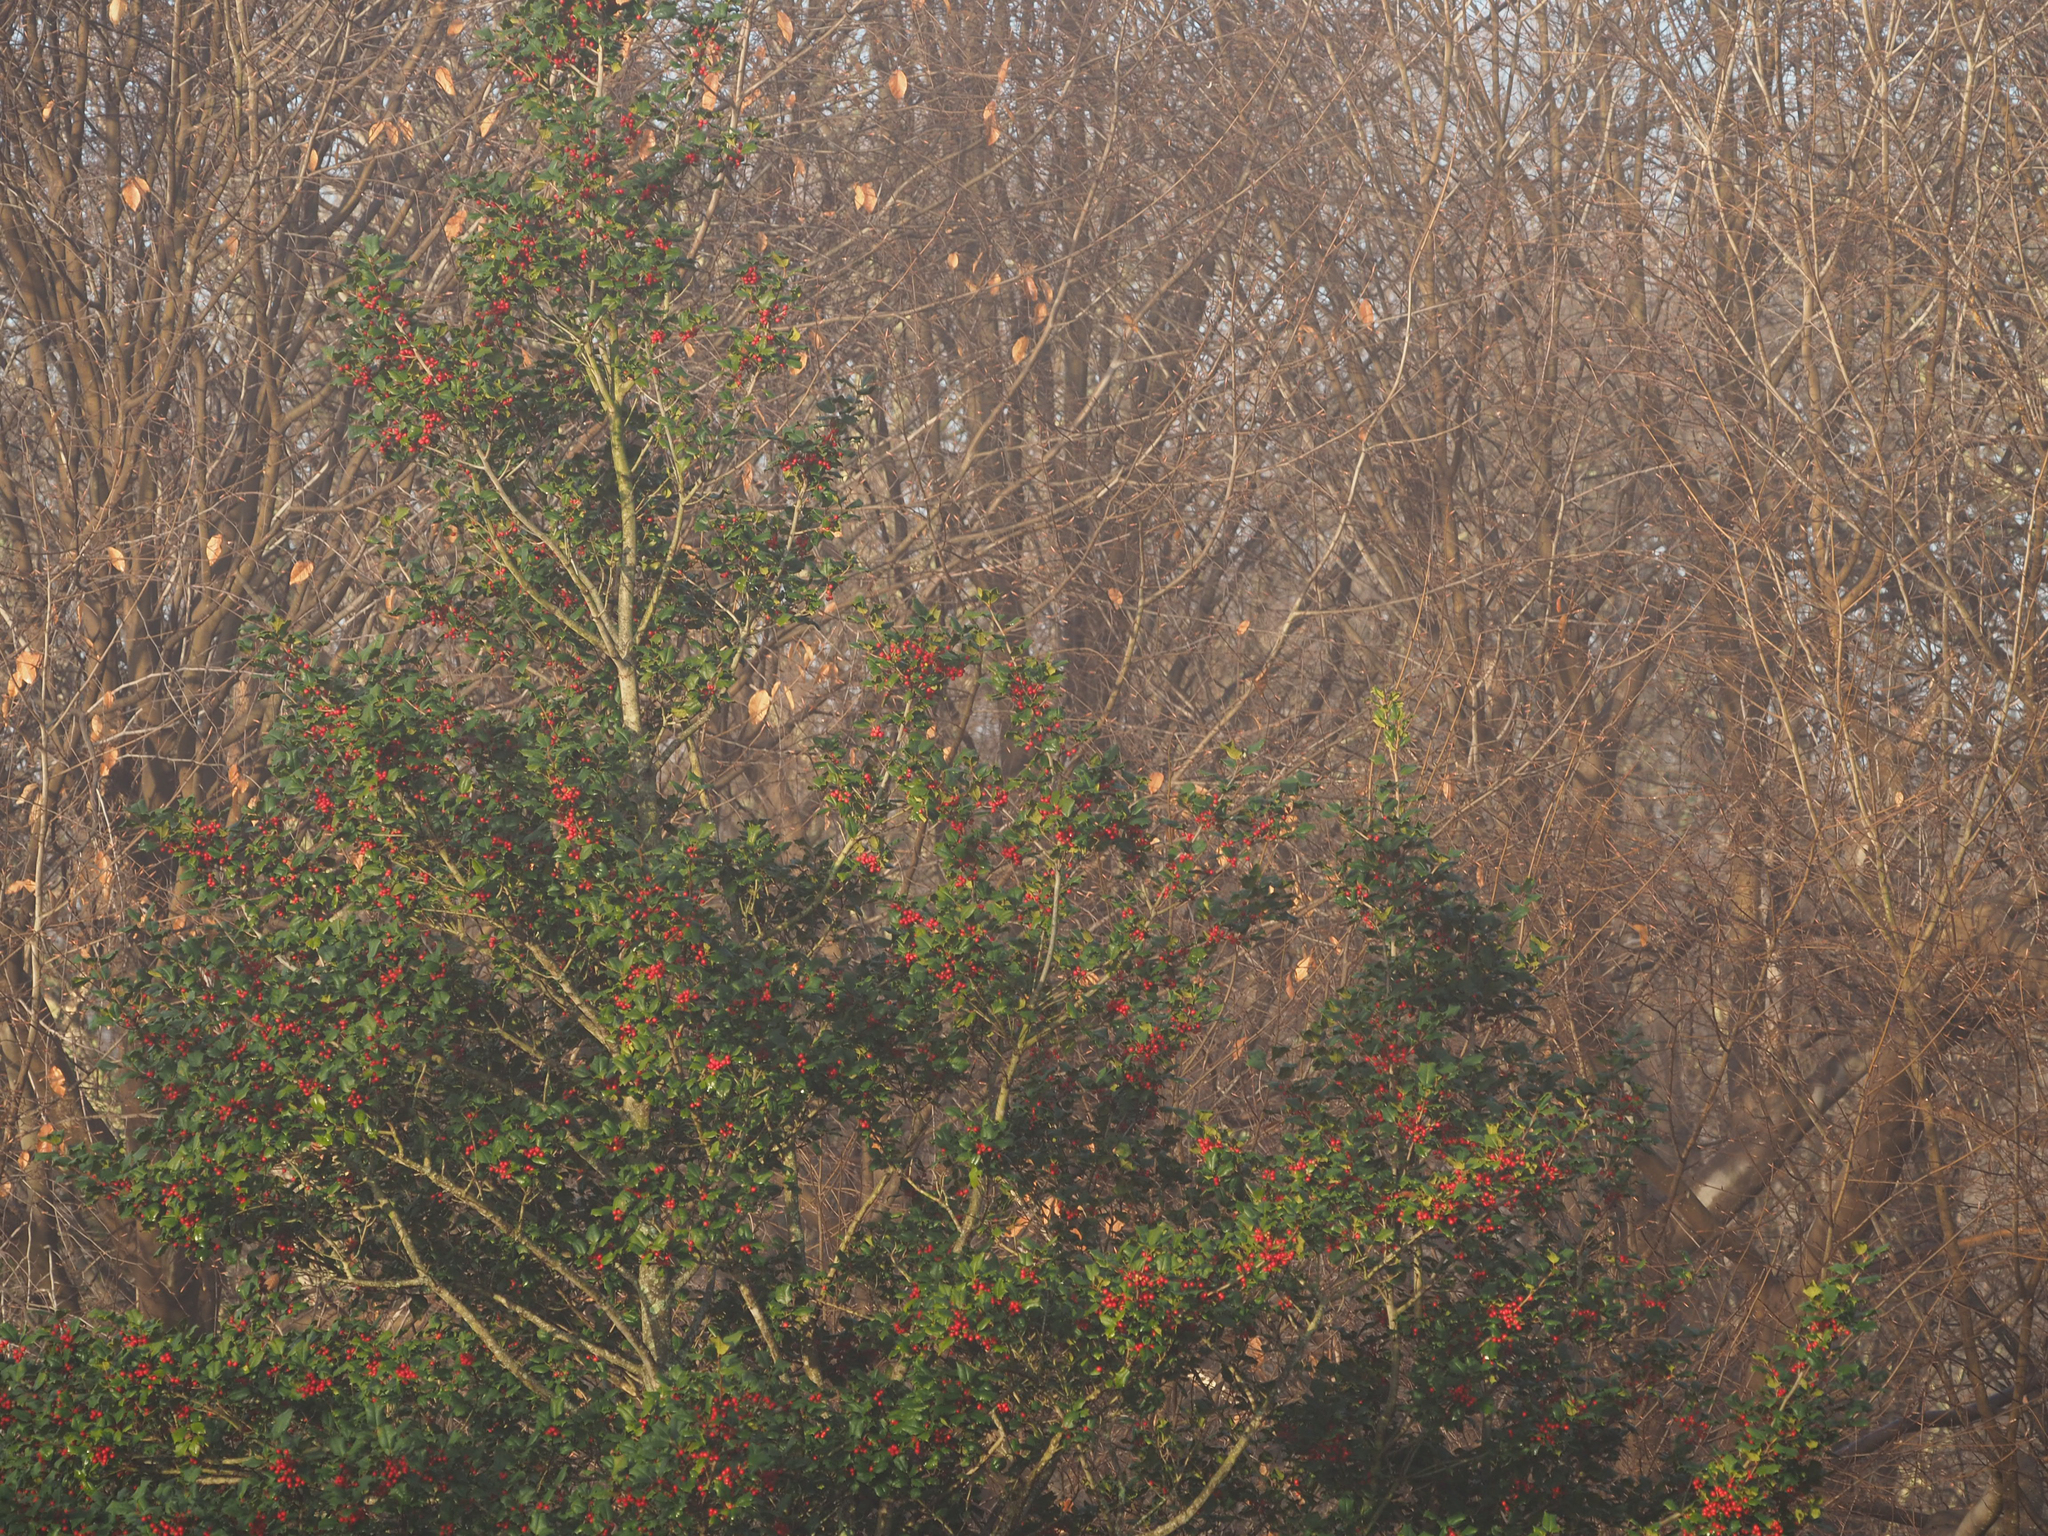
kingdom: Plantae
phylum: Tracheophyta
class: Magnoliopsida
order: Aquifoliales
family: Aquifoliaceae
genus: Ilex
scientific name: Ilex opaca
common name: American holly
